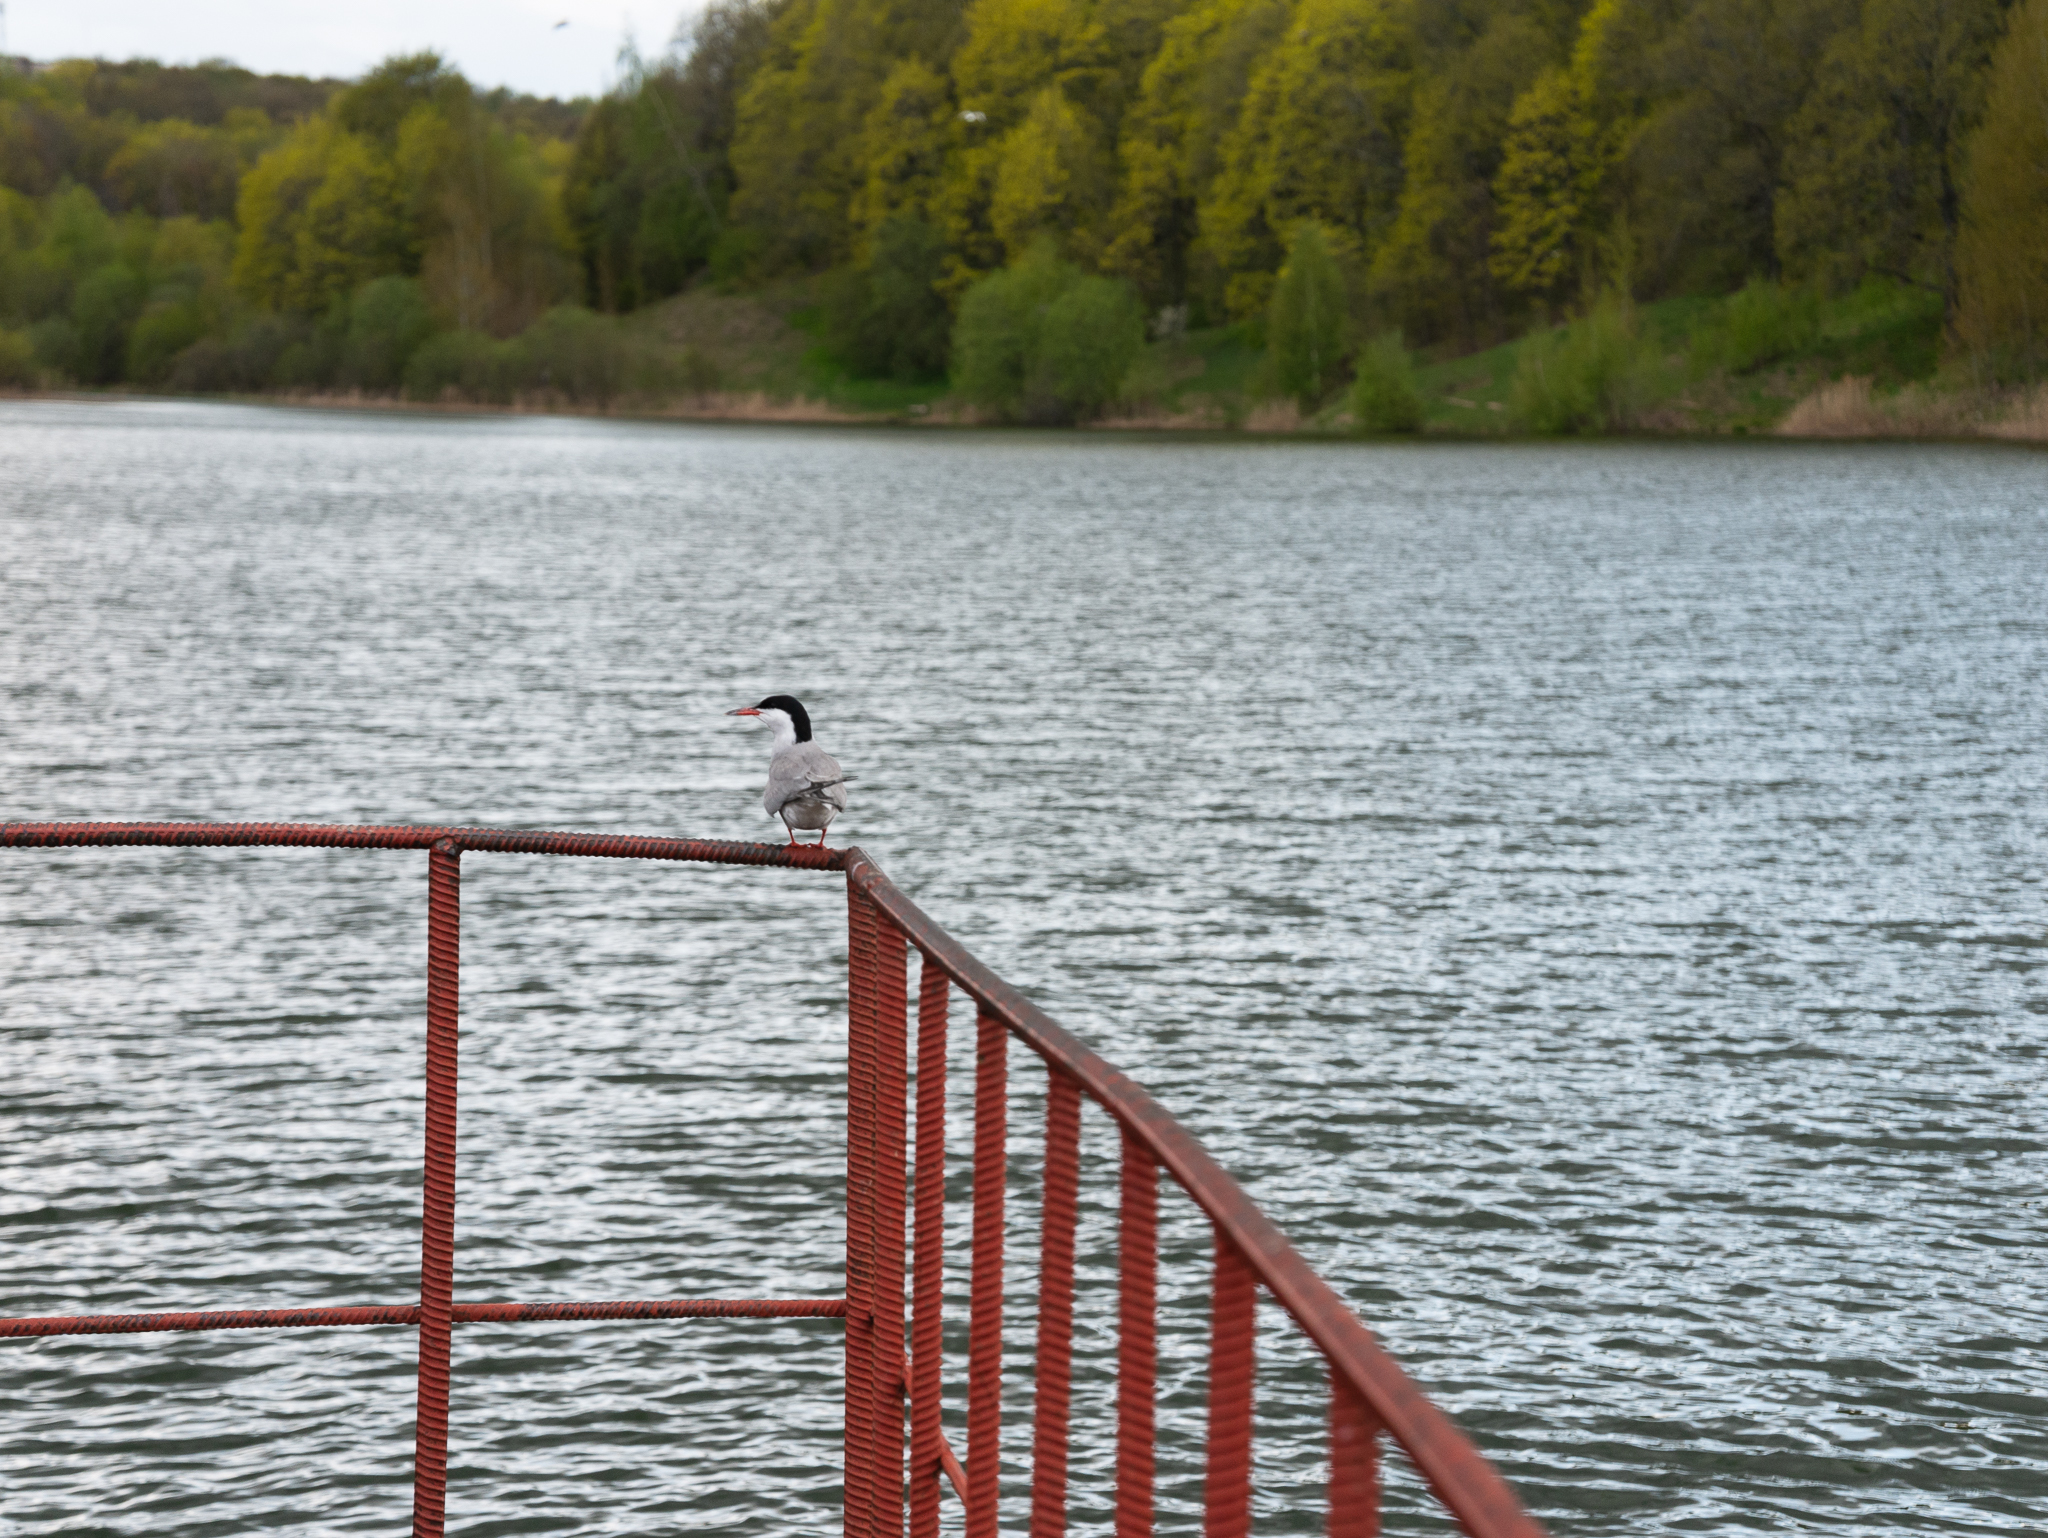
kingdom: Animalia
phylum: Chordata
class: Aves
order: Charadriiformes
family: Laridae
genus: Sterna
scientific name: Sterna hirundo
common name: Common tern
